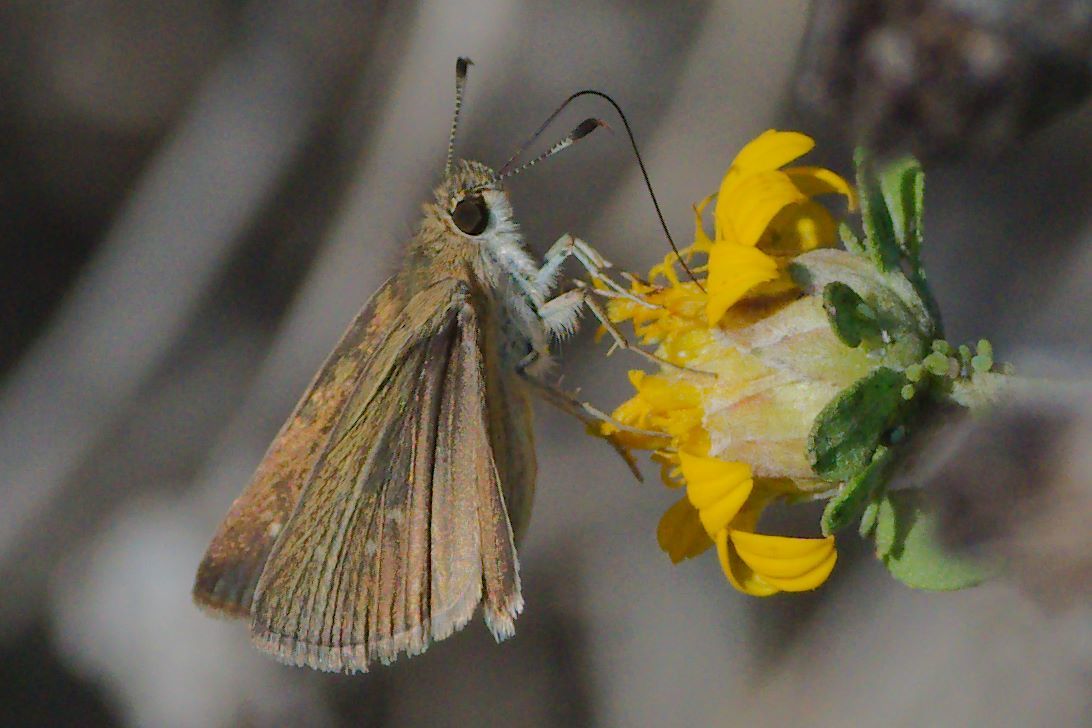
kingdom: Animalia
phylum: Arthropoda
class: Insecta
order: Lepidoptera
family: Hesperiidae
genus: Nastra
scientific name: Nastra julia
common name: Julia's skipper
